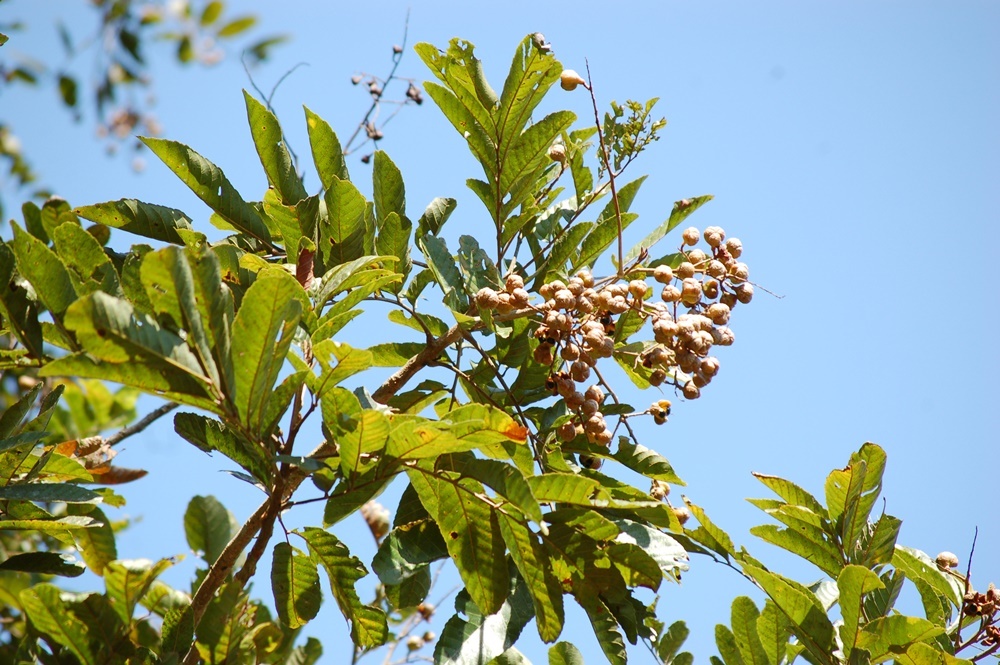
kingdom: Plantae
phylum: Tracheophyta
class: Magnoliopsida
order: Sapindales
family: Sapindaceae
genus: Cupania
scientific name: Cupania dentata
